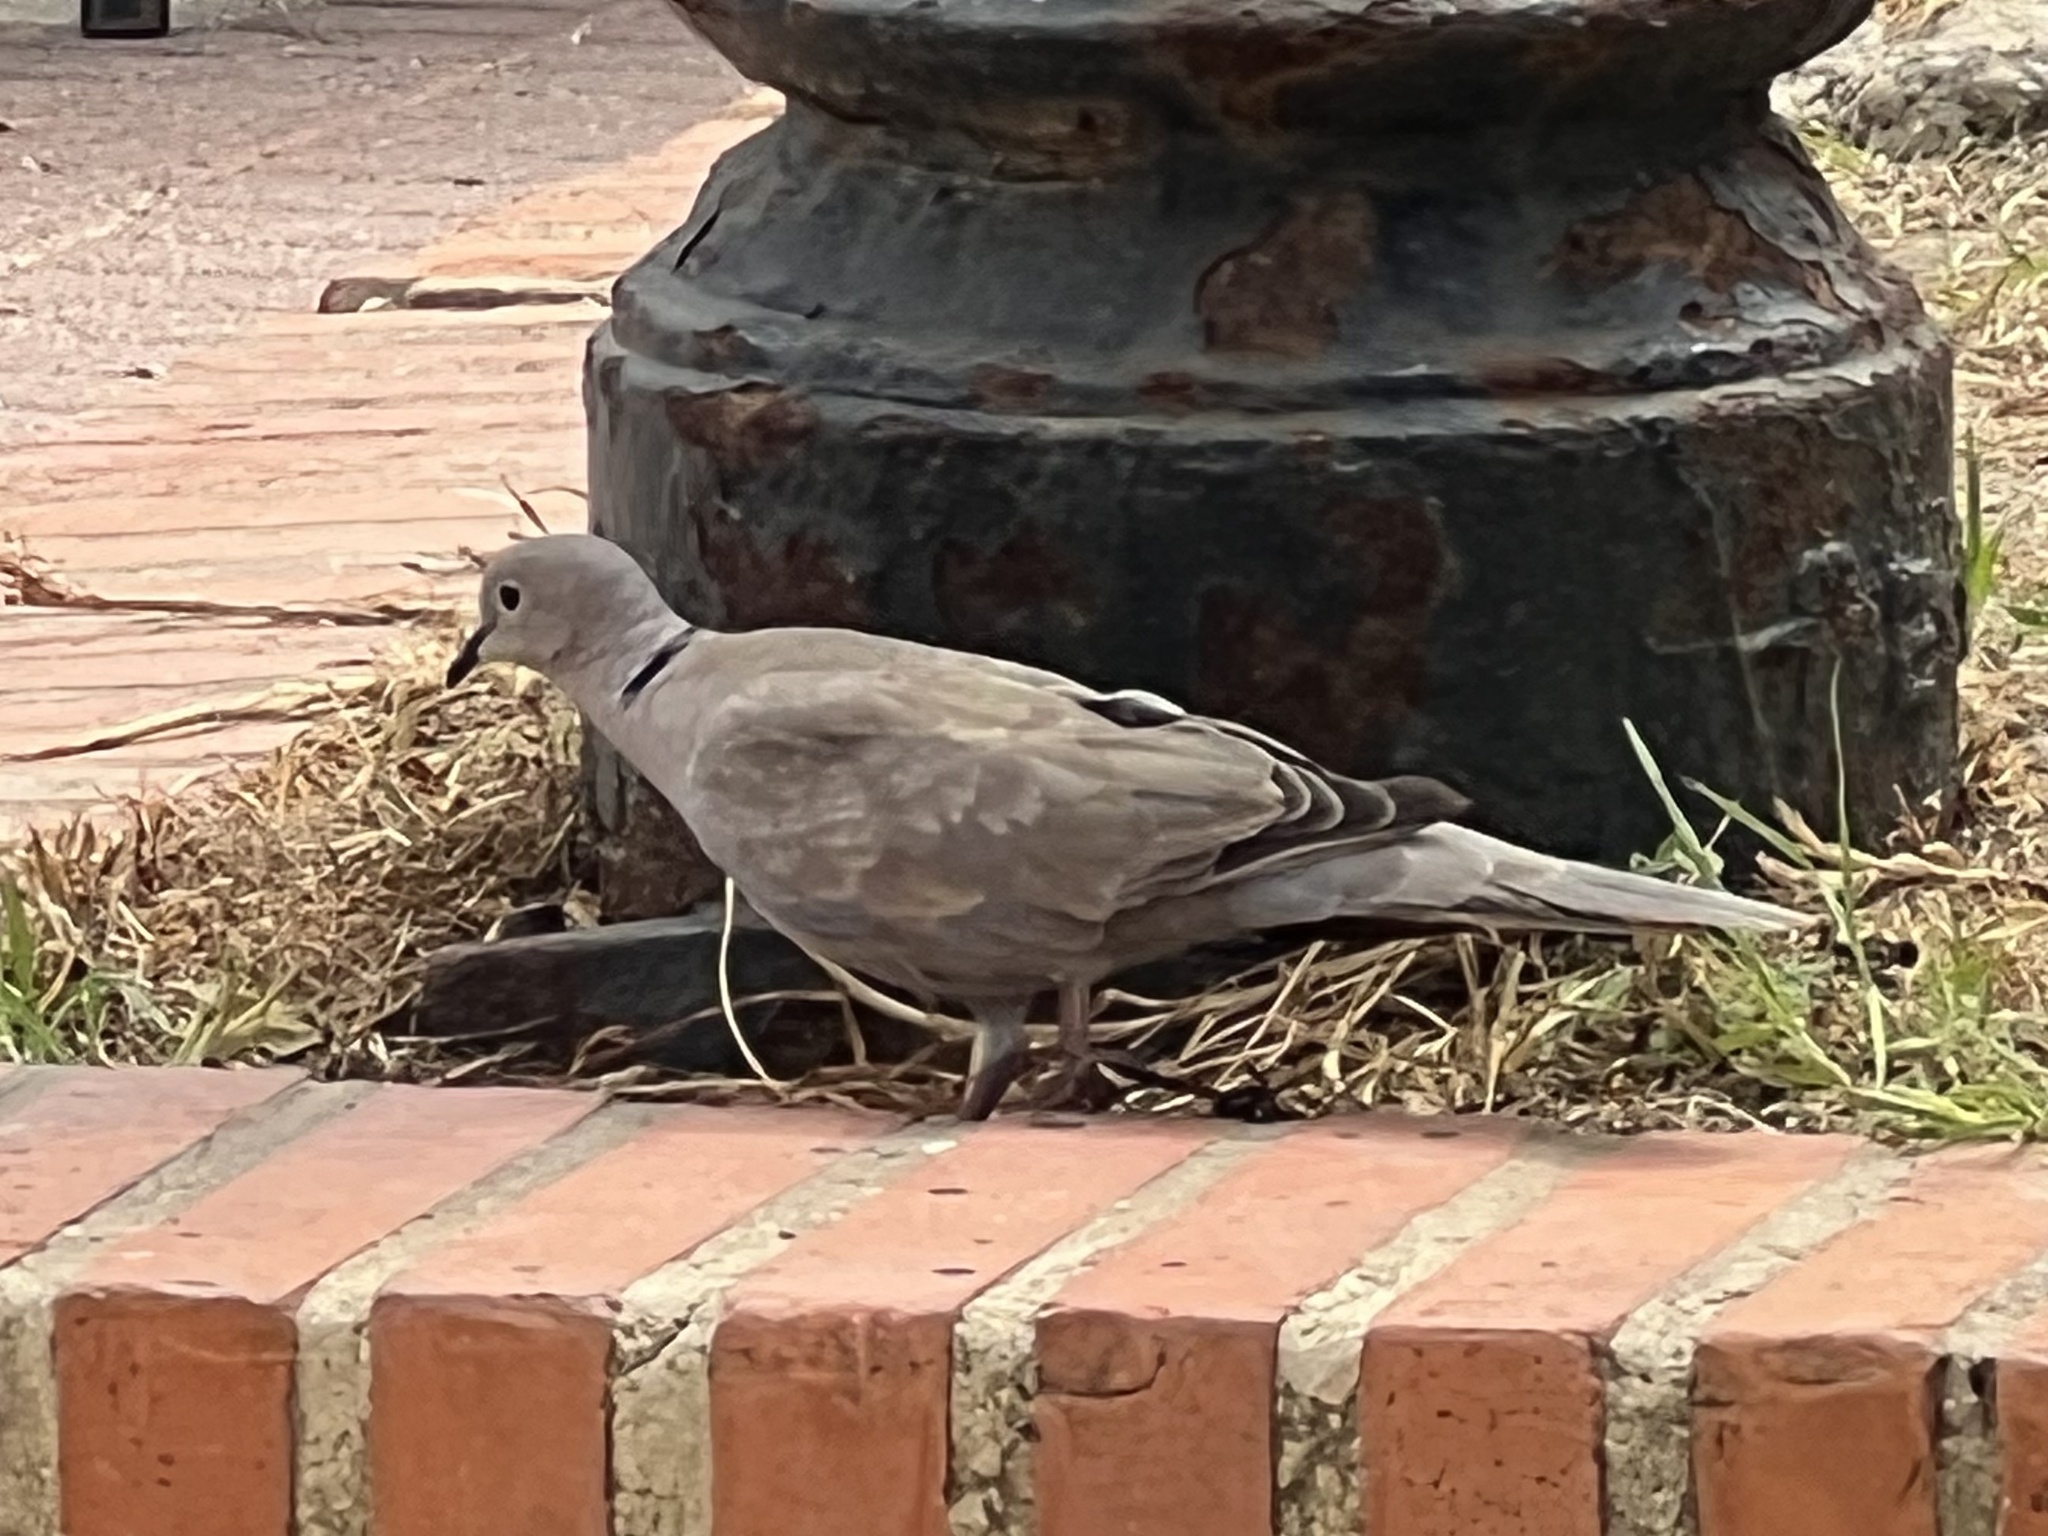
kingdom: Animalia
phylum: Chordata
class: Aves
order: Columbiformes
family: Columbidae
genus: Streptopelia
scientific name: Streptopelia decaocto
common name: Eurasian collared dove
